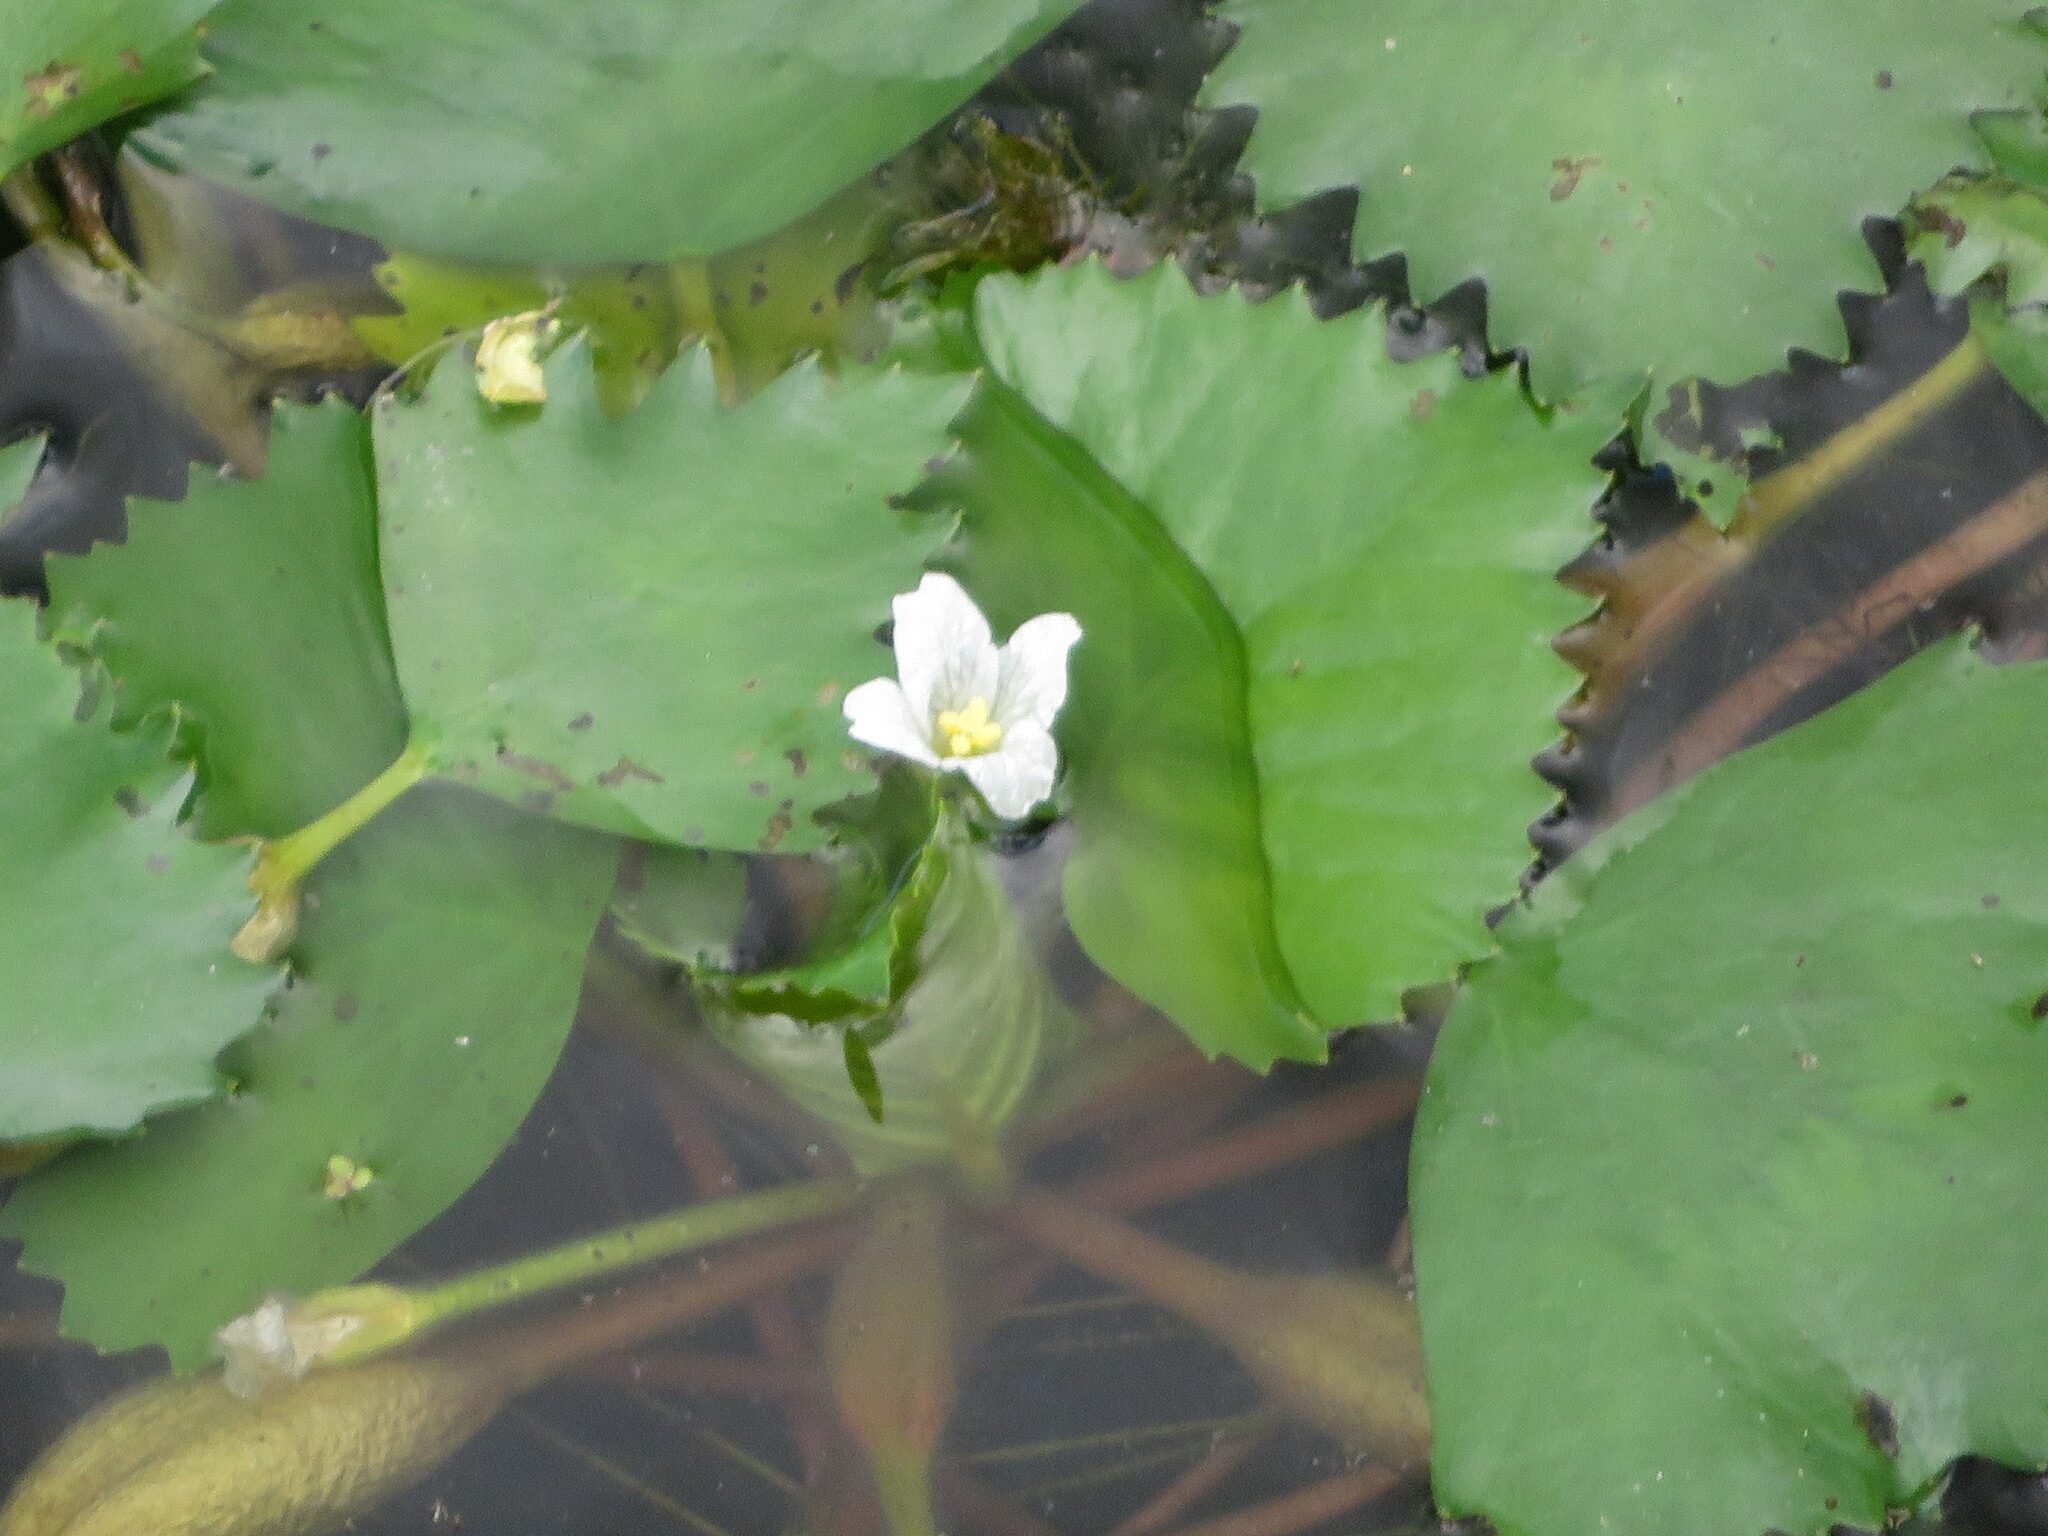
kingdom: Plantae
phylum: Tracheophyta
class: Magnoliopsida
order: Myrtales
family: Lythraceae
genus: Trapa
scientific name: Trapa natans
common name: Water chestnut
